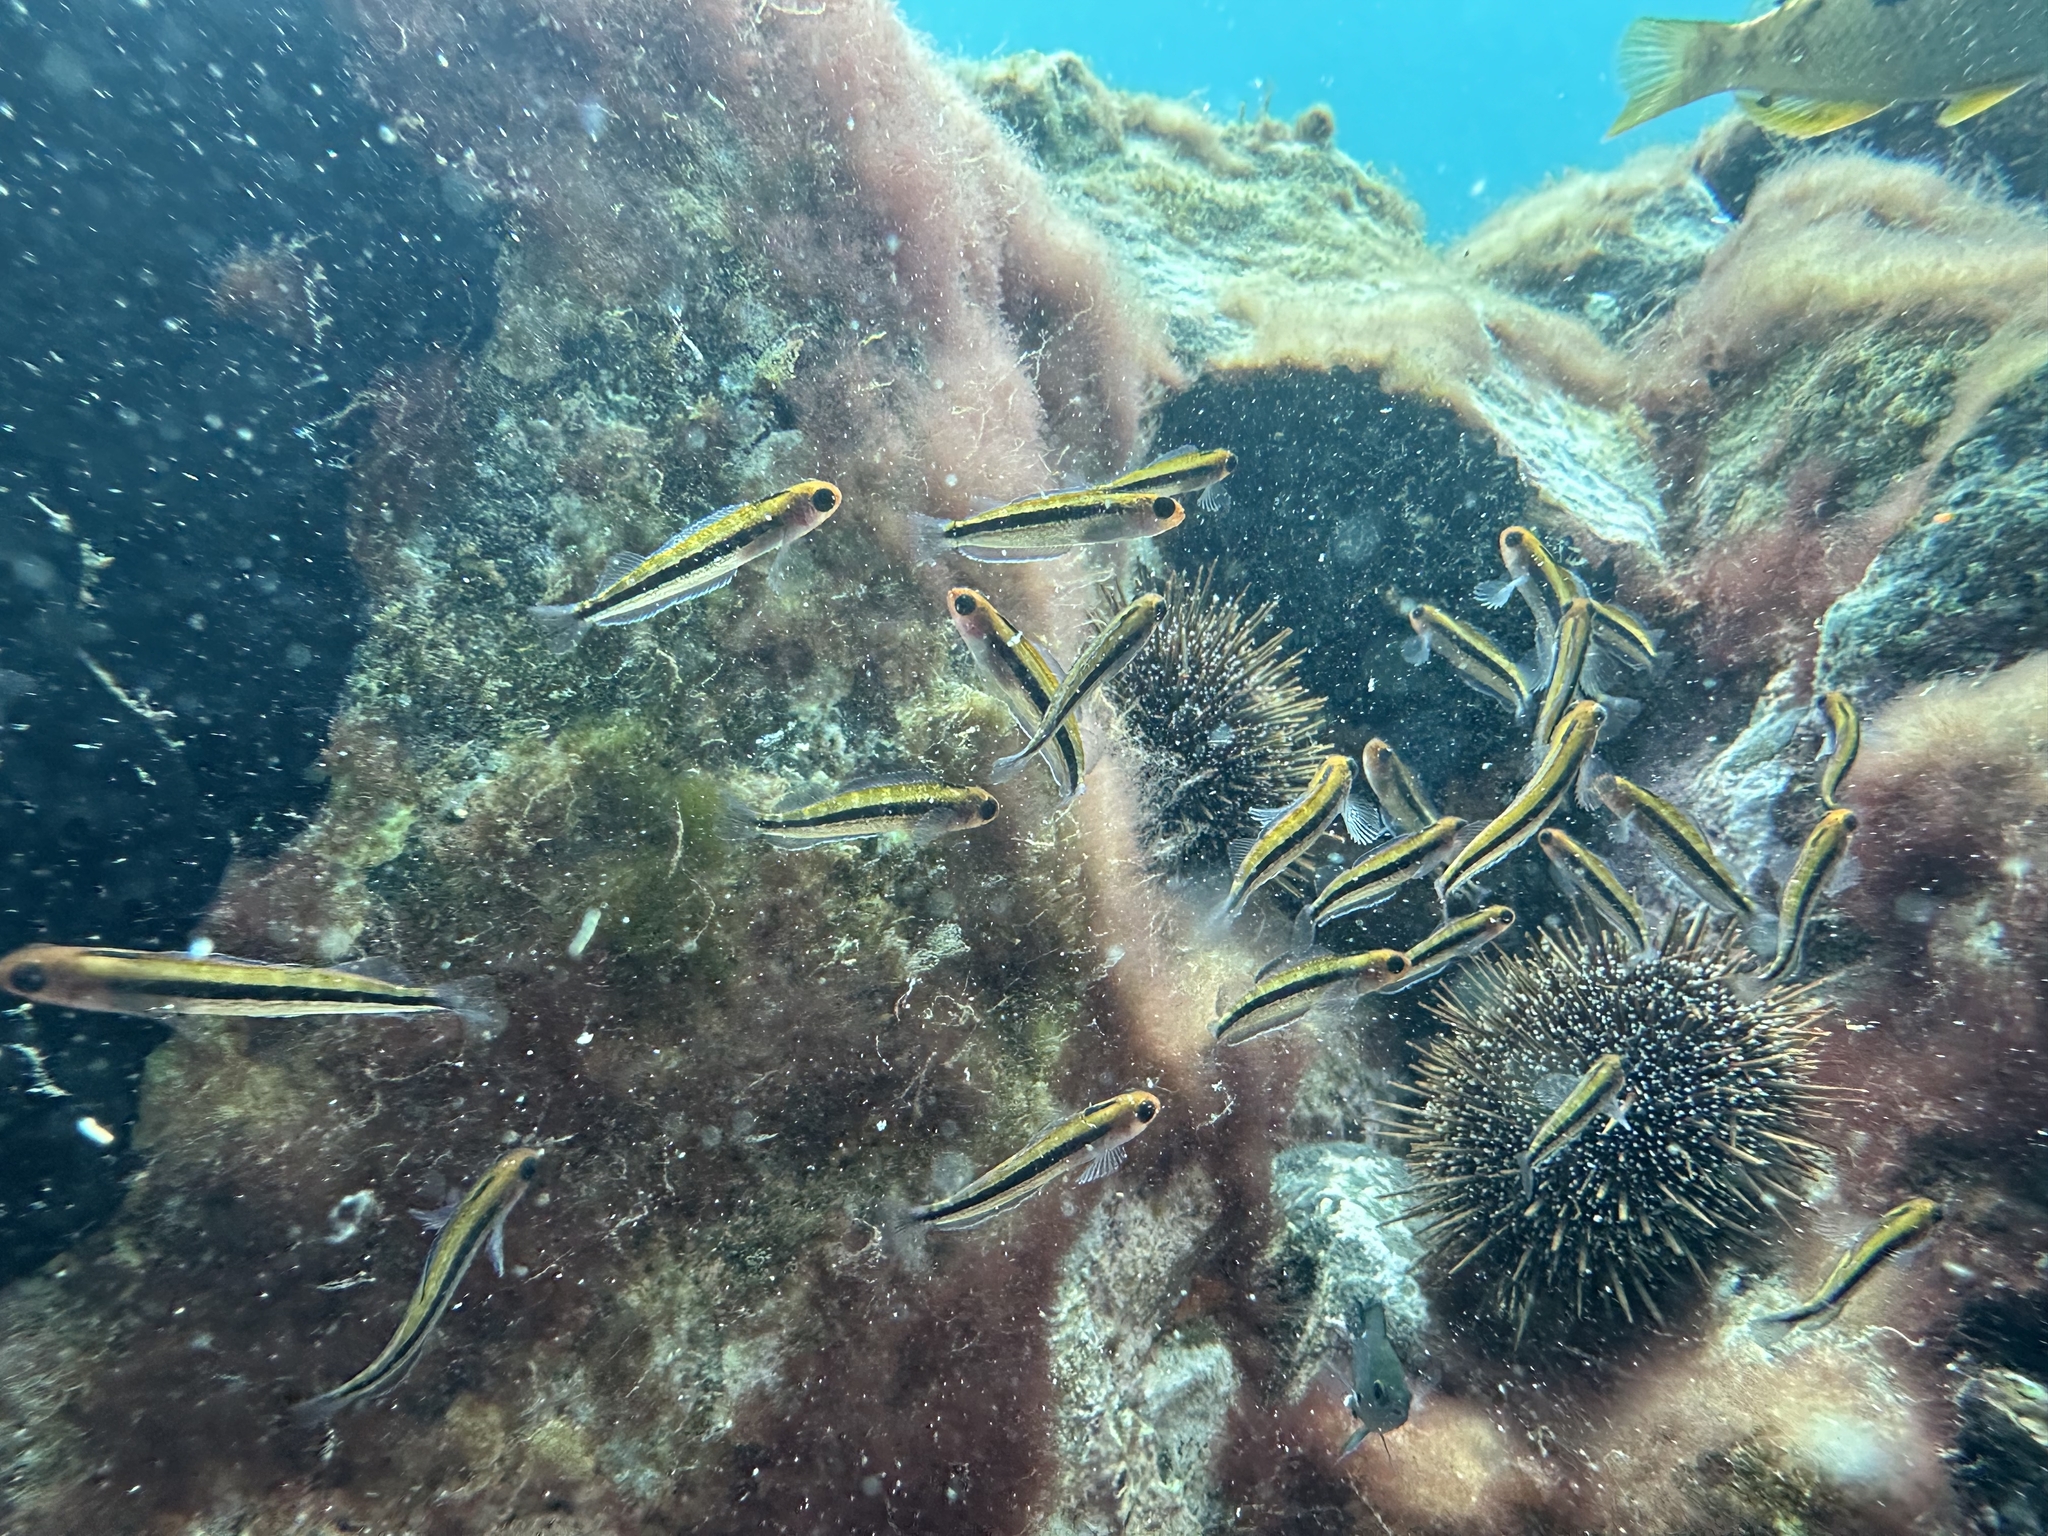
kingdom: Animalia
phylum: Chordata
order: Perciformes
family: Tripterygiidae
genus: Forsterygion
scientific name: Forsterygion maryannae
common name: Oblique-swimming triplefin
